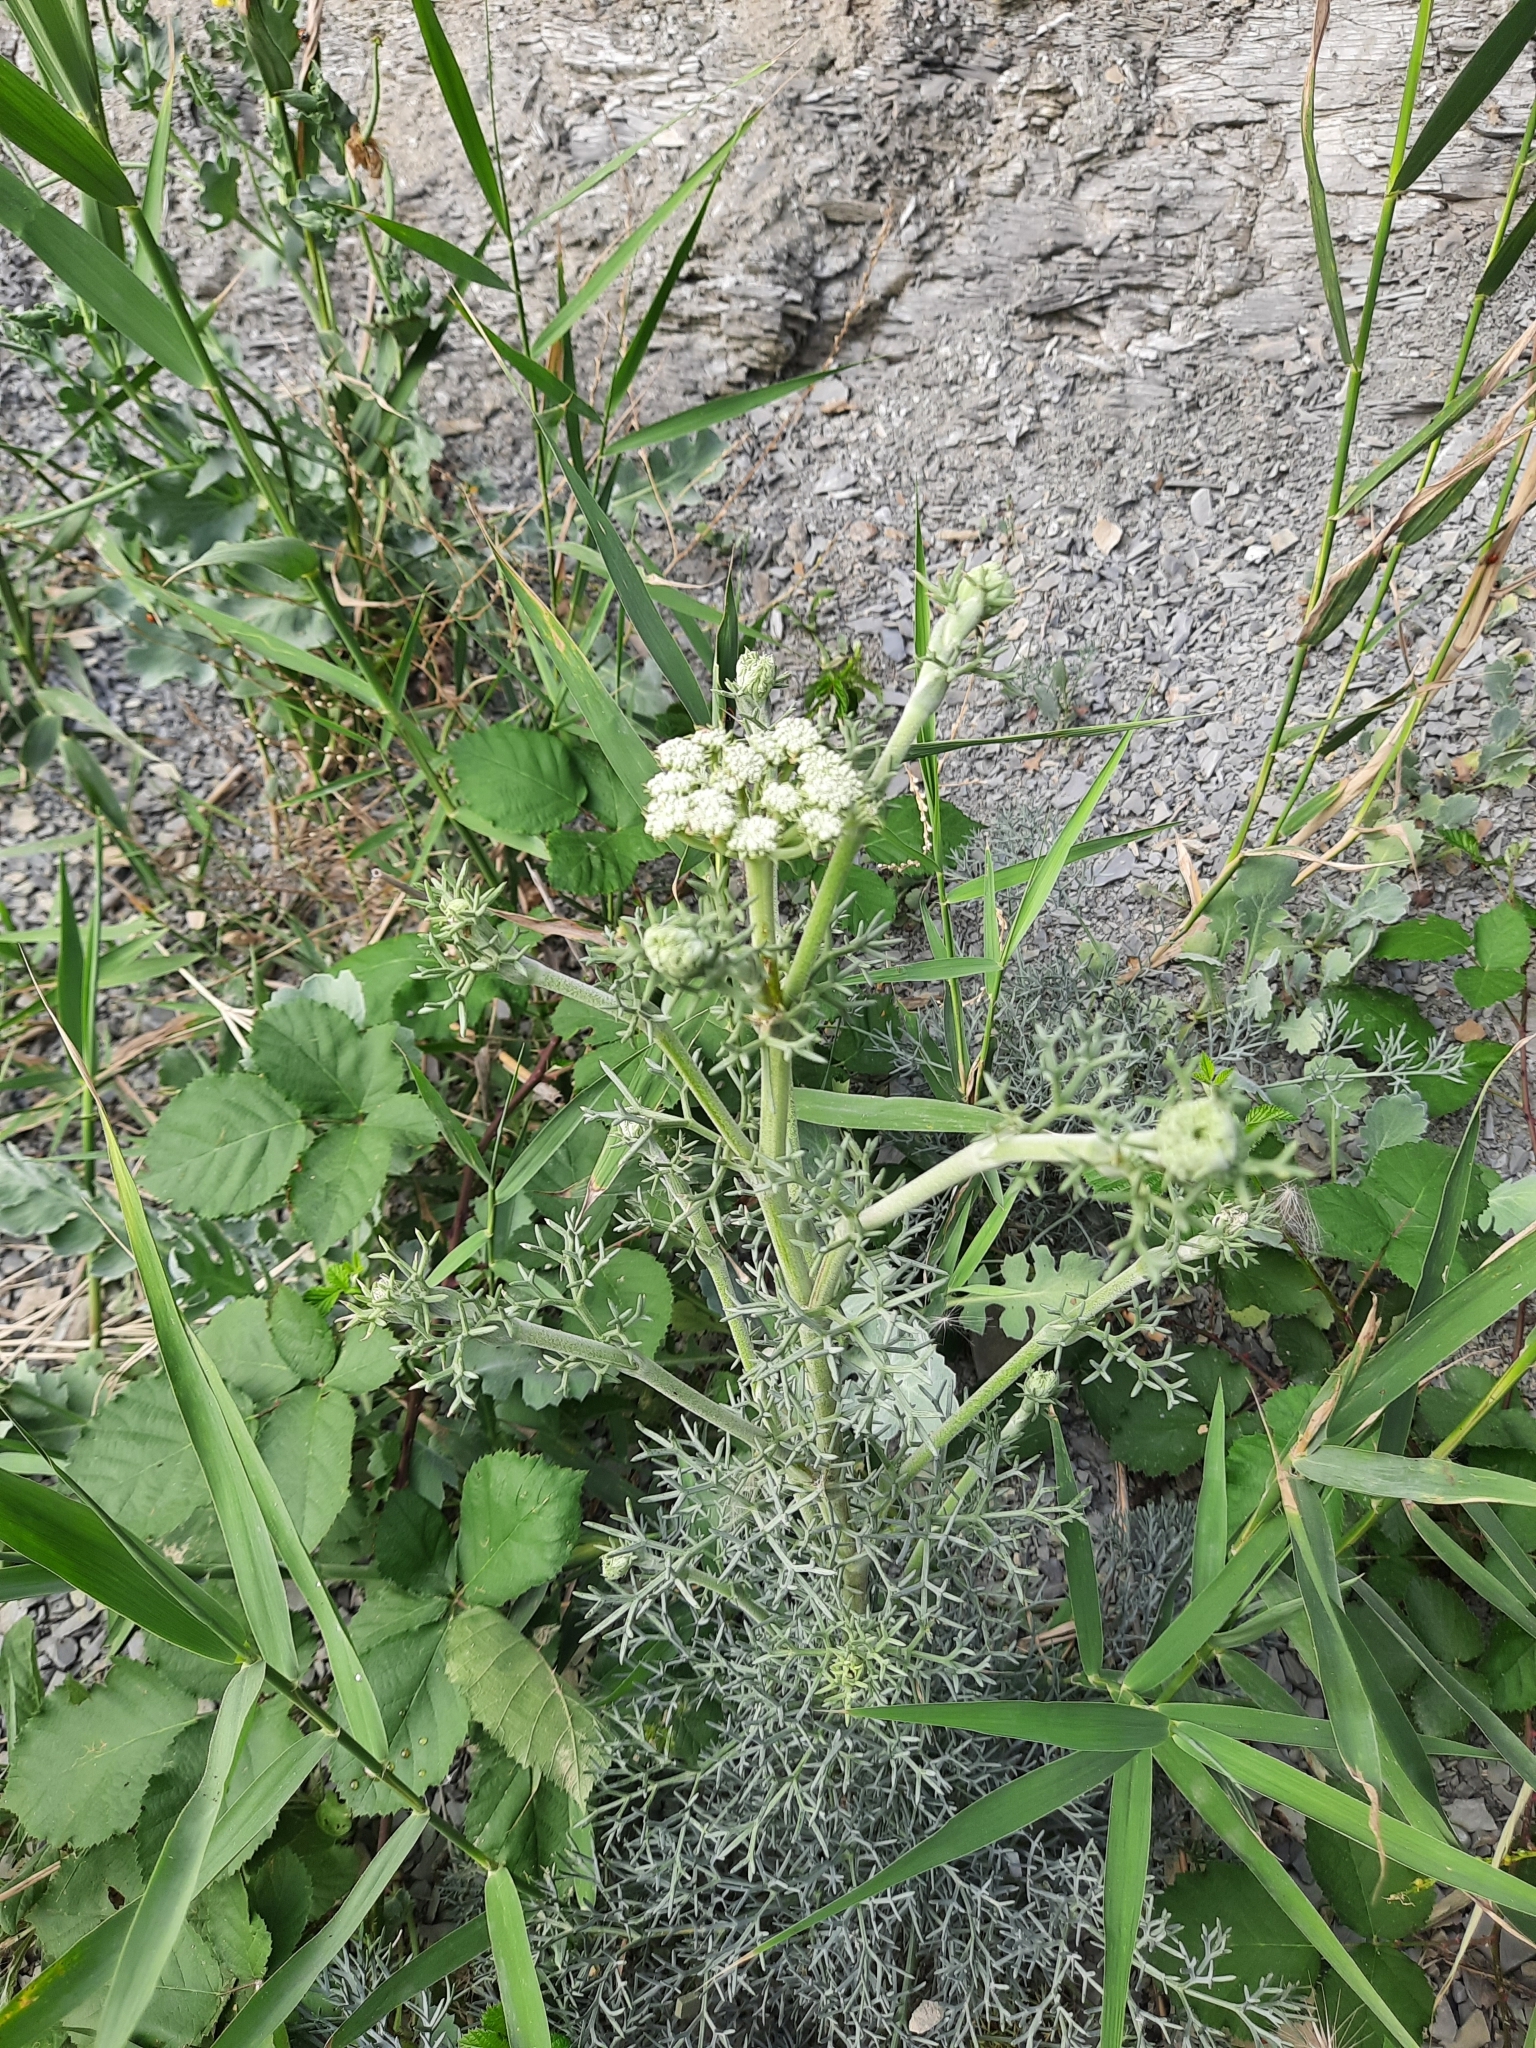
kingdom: Plantae
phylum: Tracheophyta
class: Magnoliopsida
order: Apiales
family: Apiaceae
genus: Seseli
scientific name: Seseli ponticum
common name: Pontic seseli
